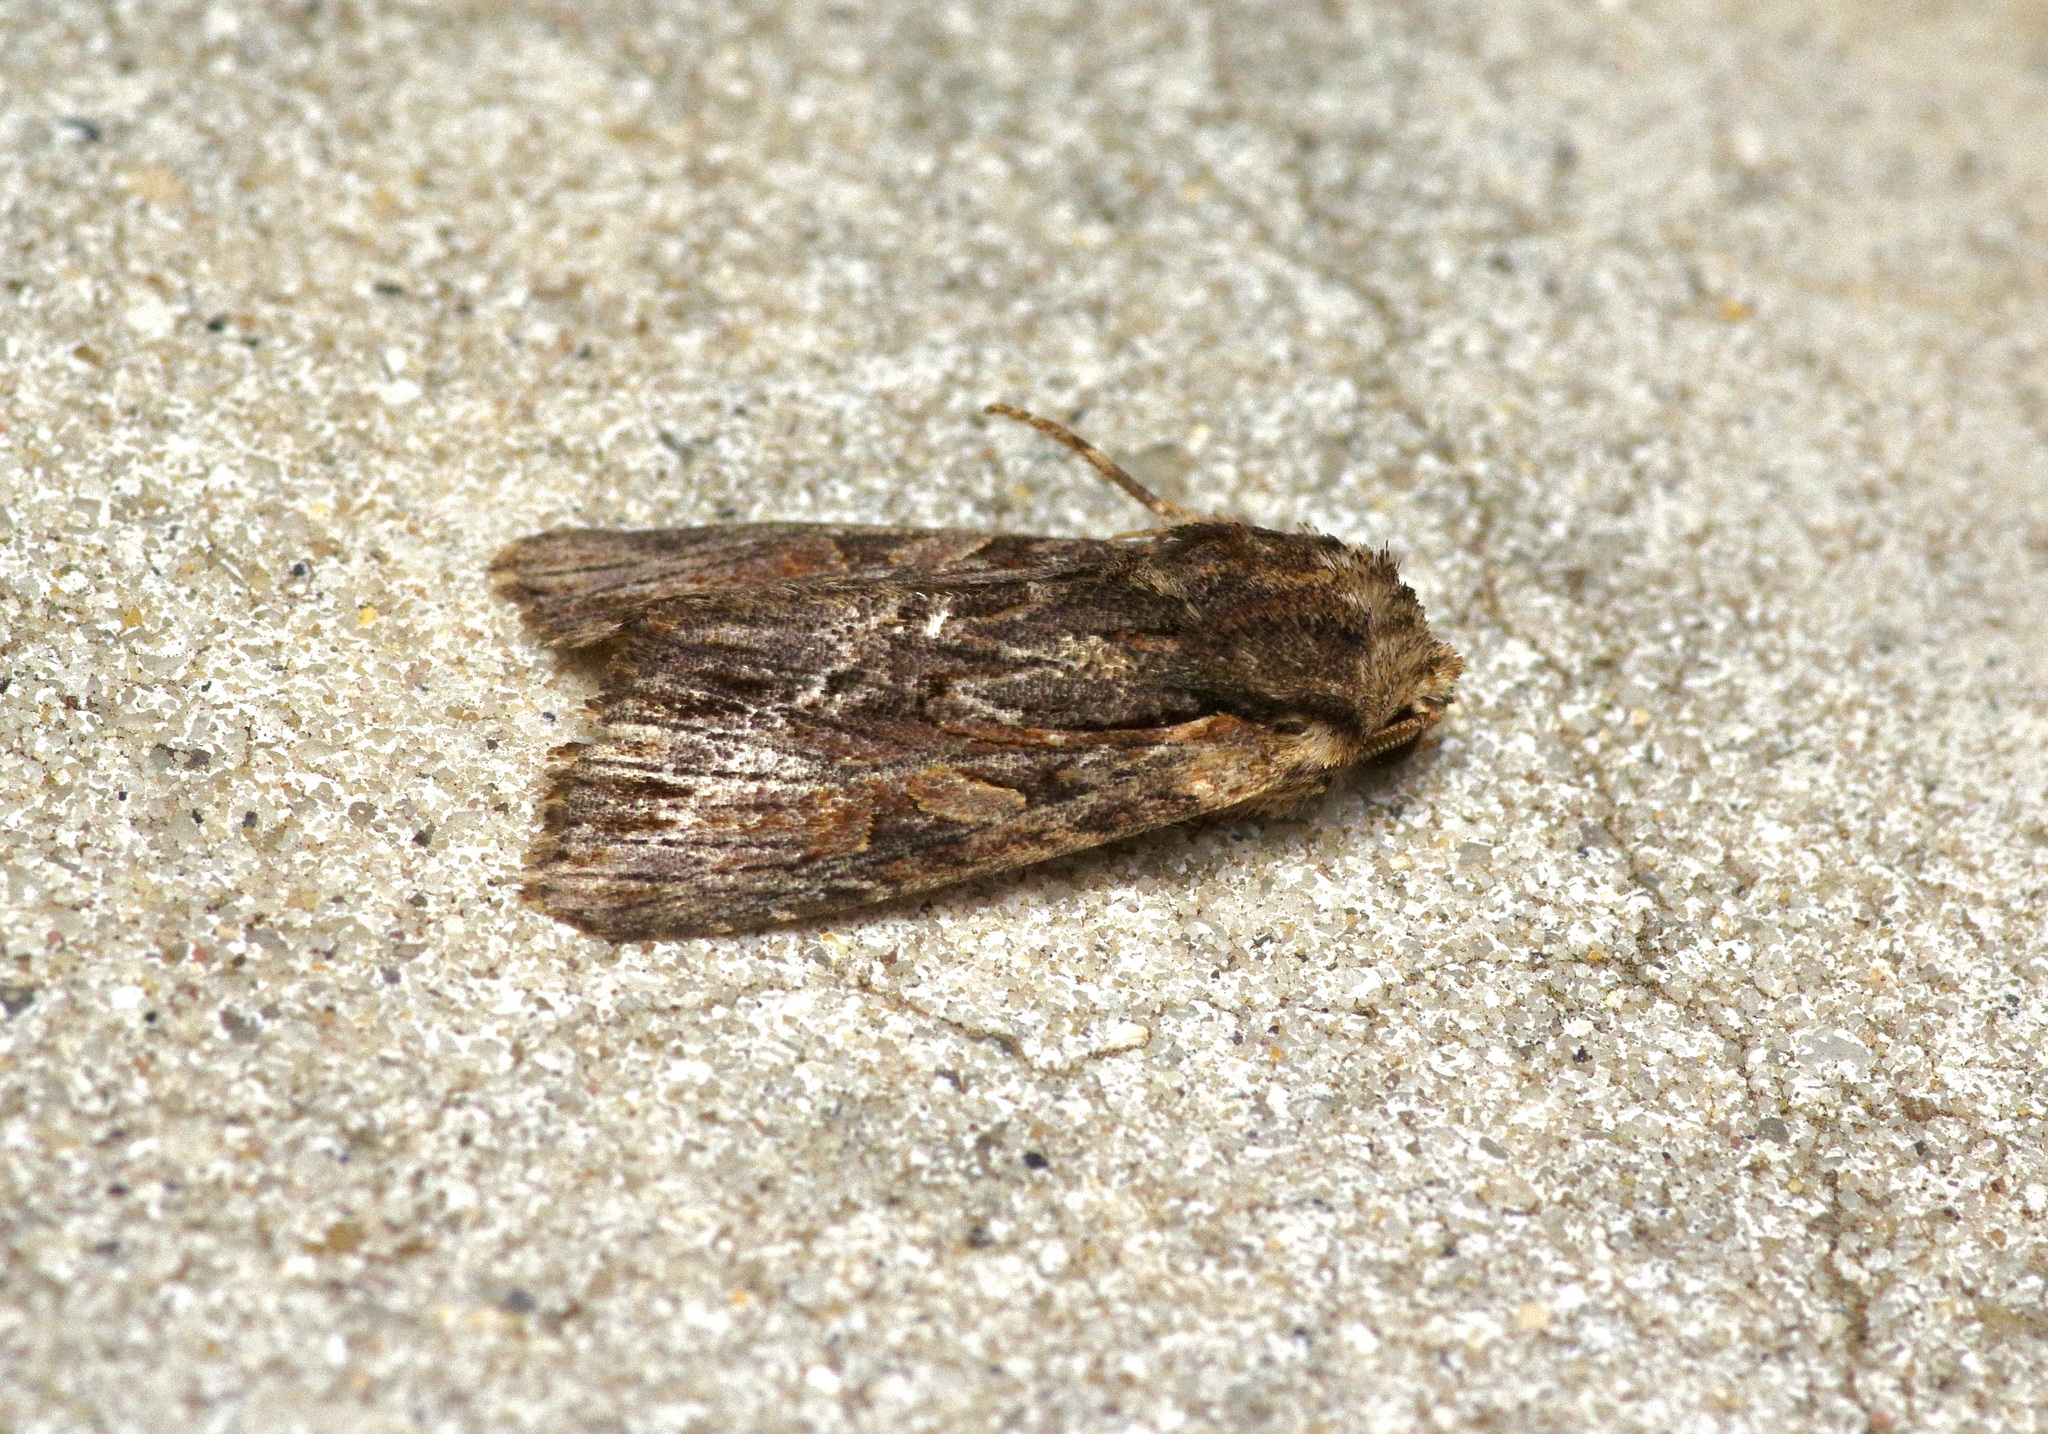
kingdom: Animalia
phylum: Arthropoda
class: Insecta
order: Lepidoptera
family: Noctuidae
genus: Achatia
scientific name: Achatia confusa
